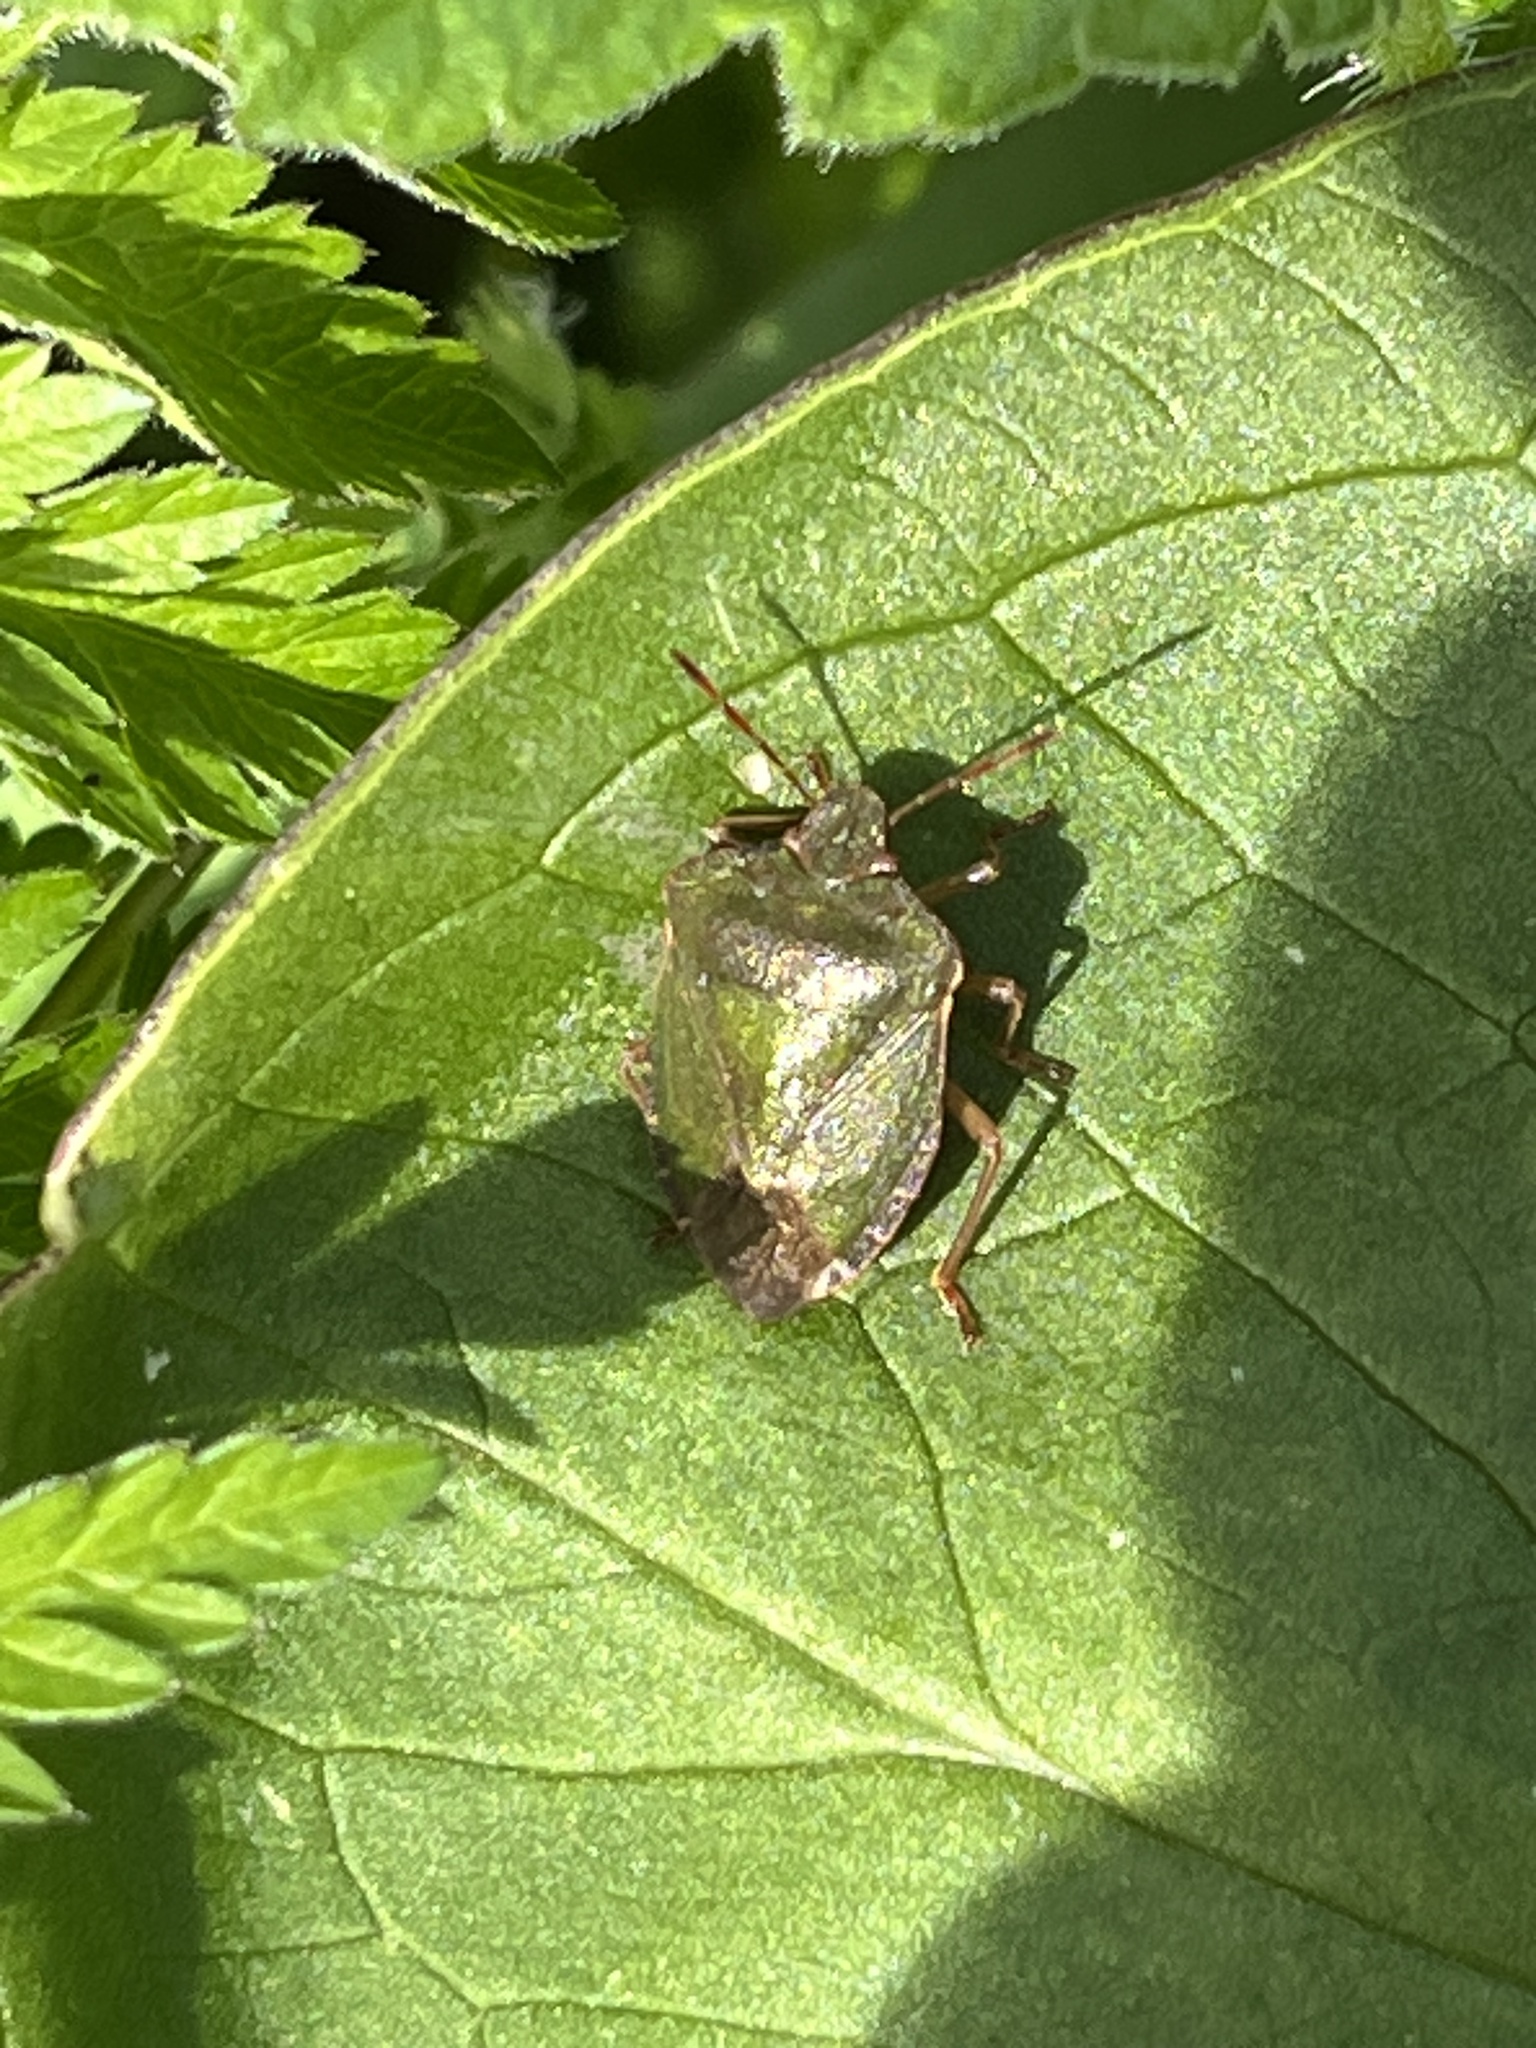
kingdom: Animalia
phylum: Arthropoda
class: Insecta
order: Hemiptera
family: Pentatomidae
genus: Palomena
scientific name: Palomena prasina
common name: Green shieldbug
